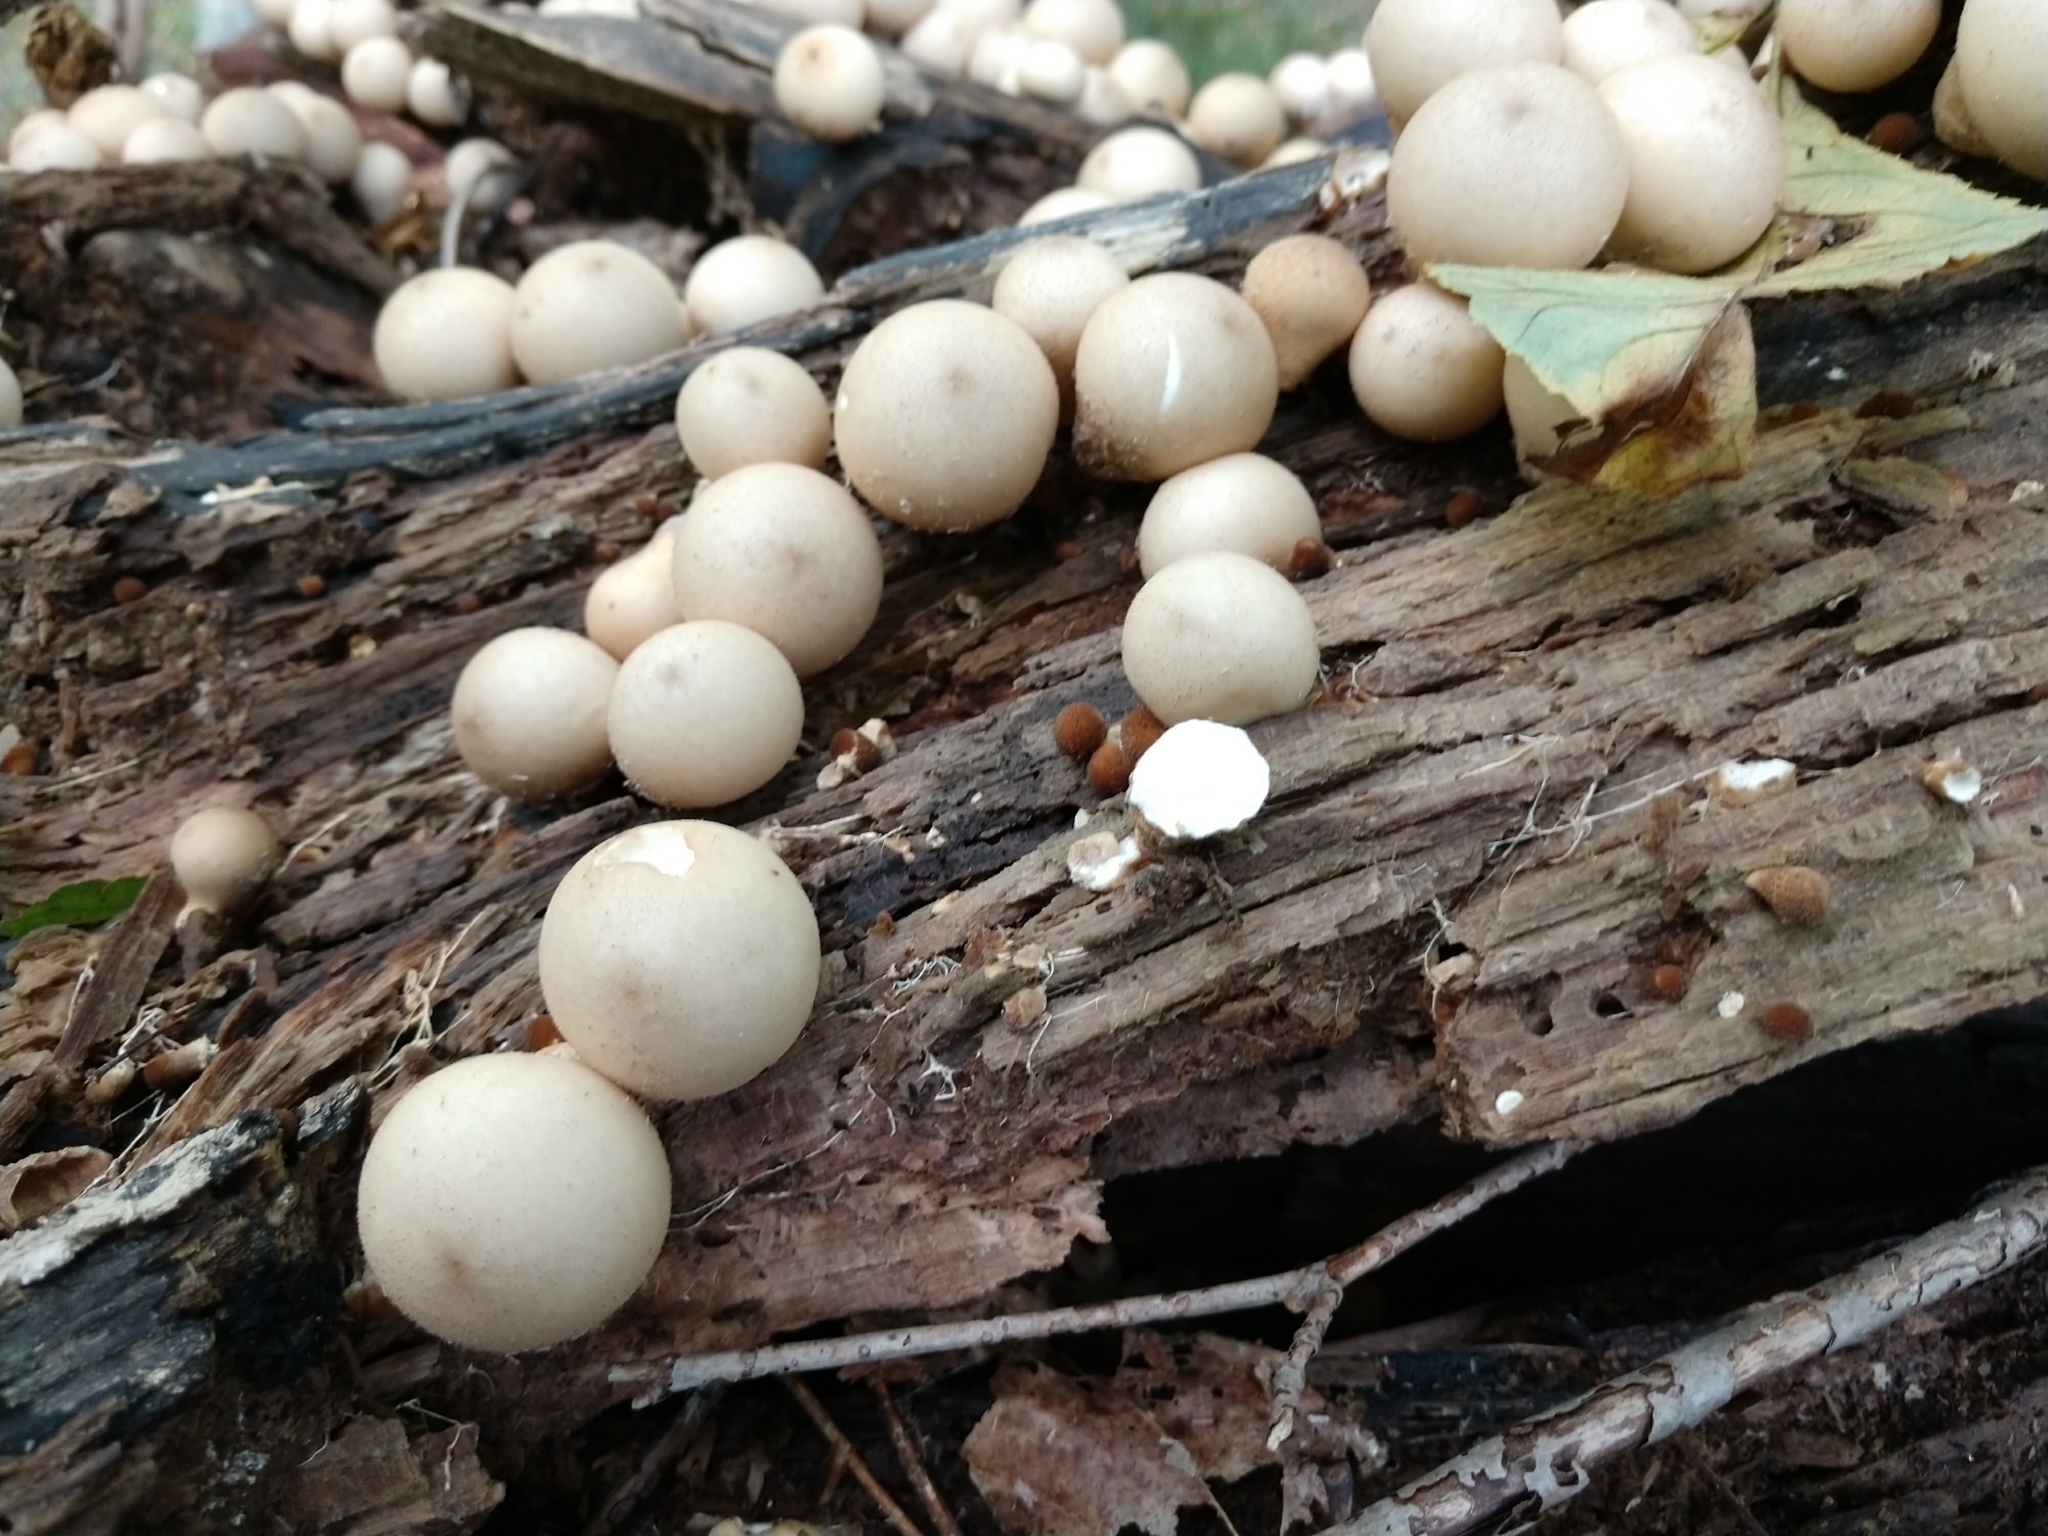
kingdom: Fungi
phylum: Basidiomycota
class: Agaricomycetes
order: Agaricales
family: Lycoperdaceae
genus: Apioperdon
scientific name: Apioperdon pyriforme
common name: Pear-shaped puffball
